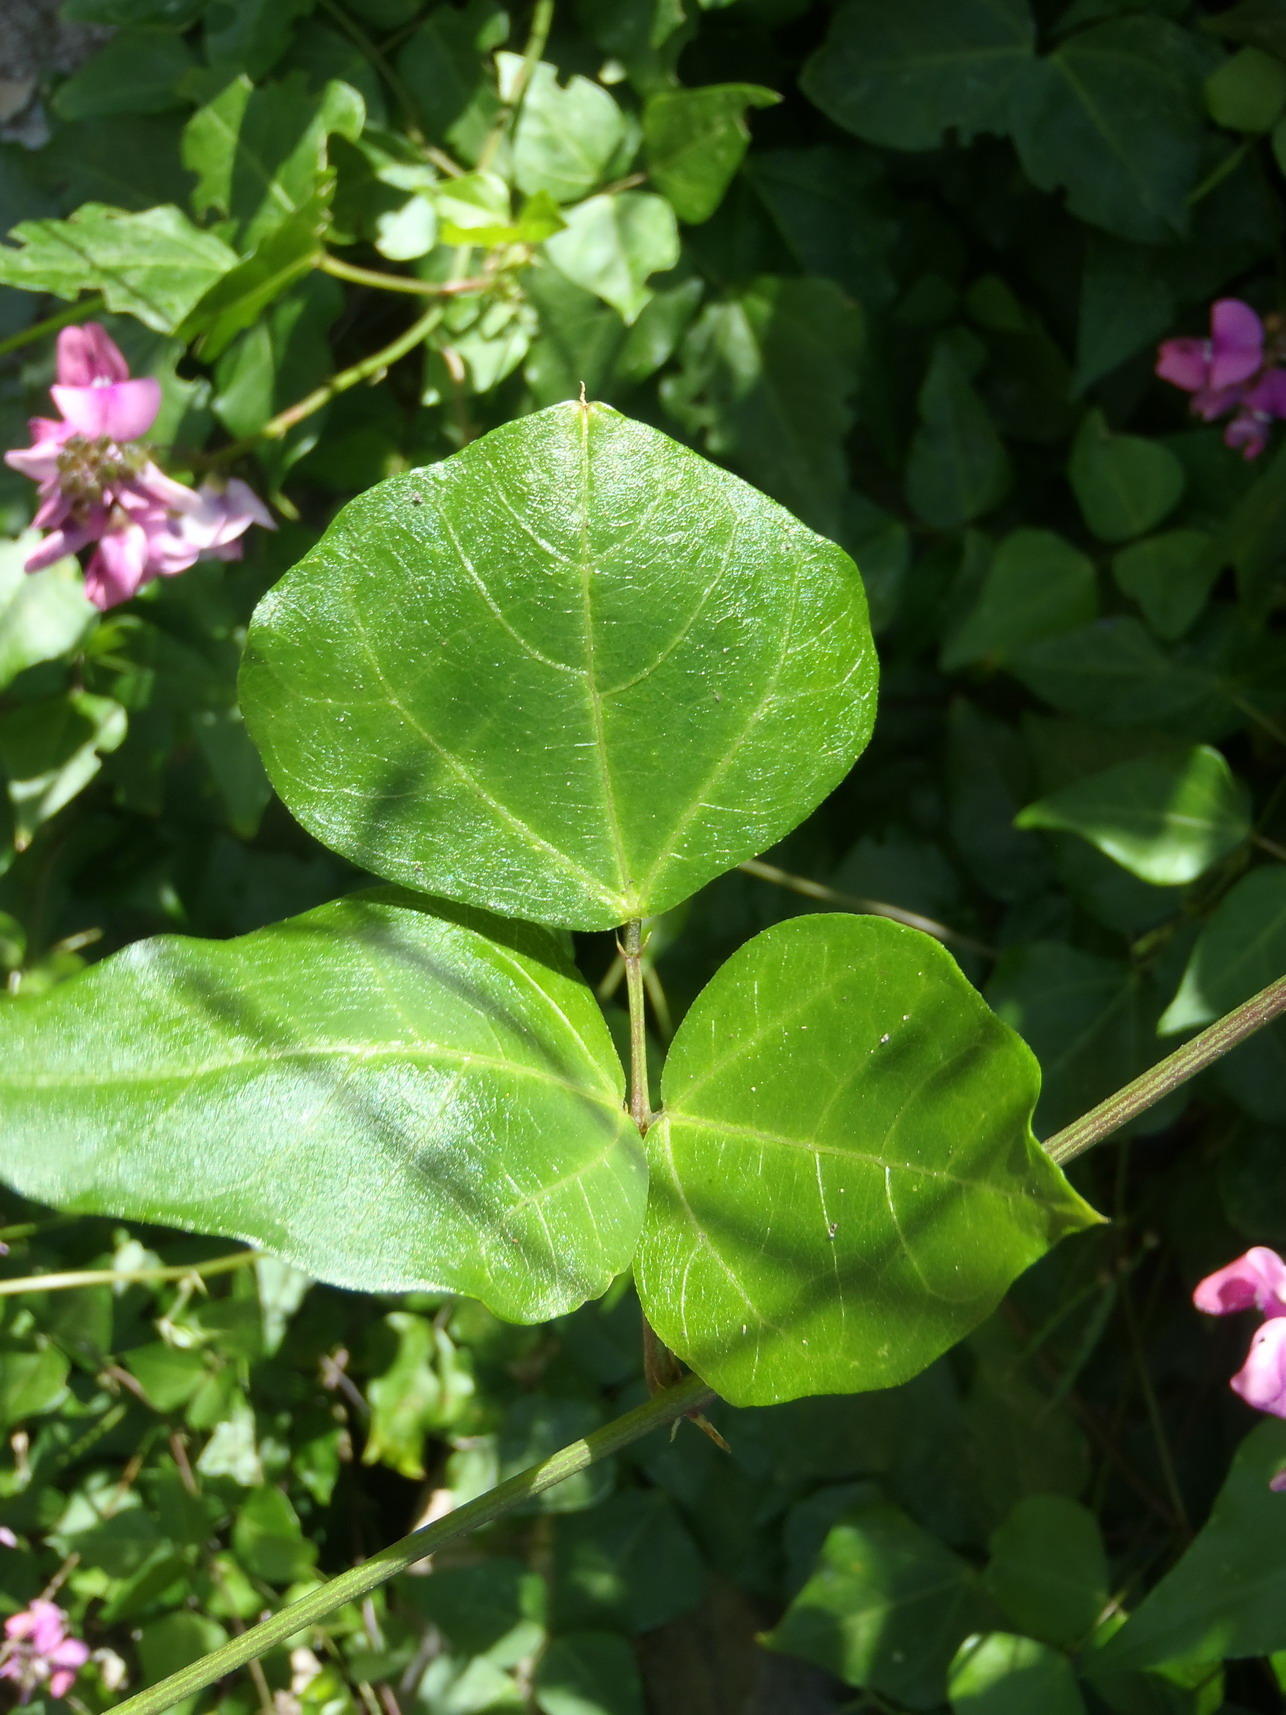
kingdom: Plantae
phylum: Tracheophyta
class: Magnoliopsida
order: Fabales
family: Fabaceae
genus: Dipogon
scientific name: Dipogon lignosus
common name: Okie bean
